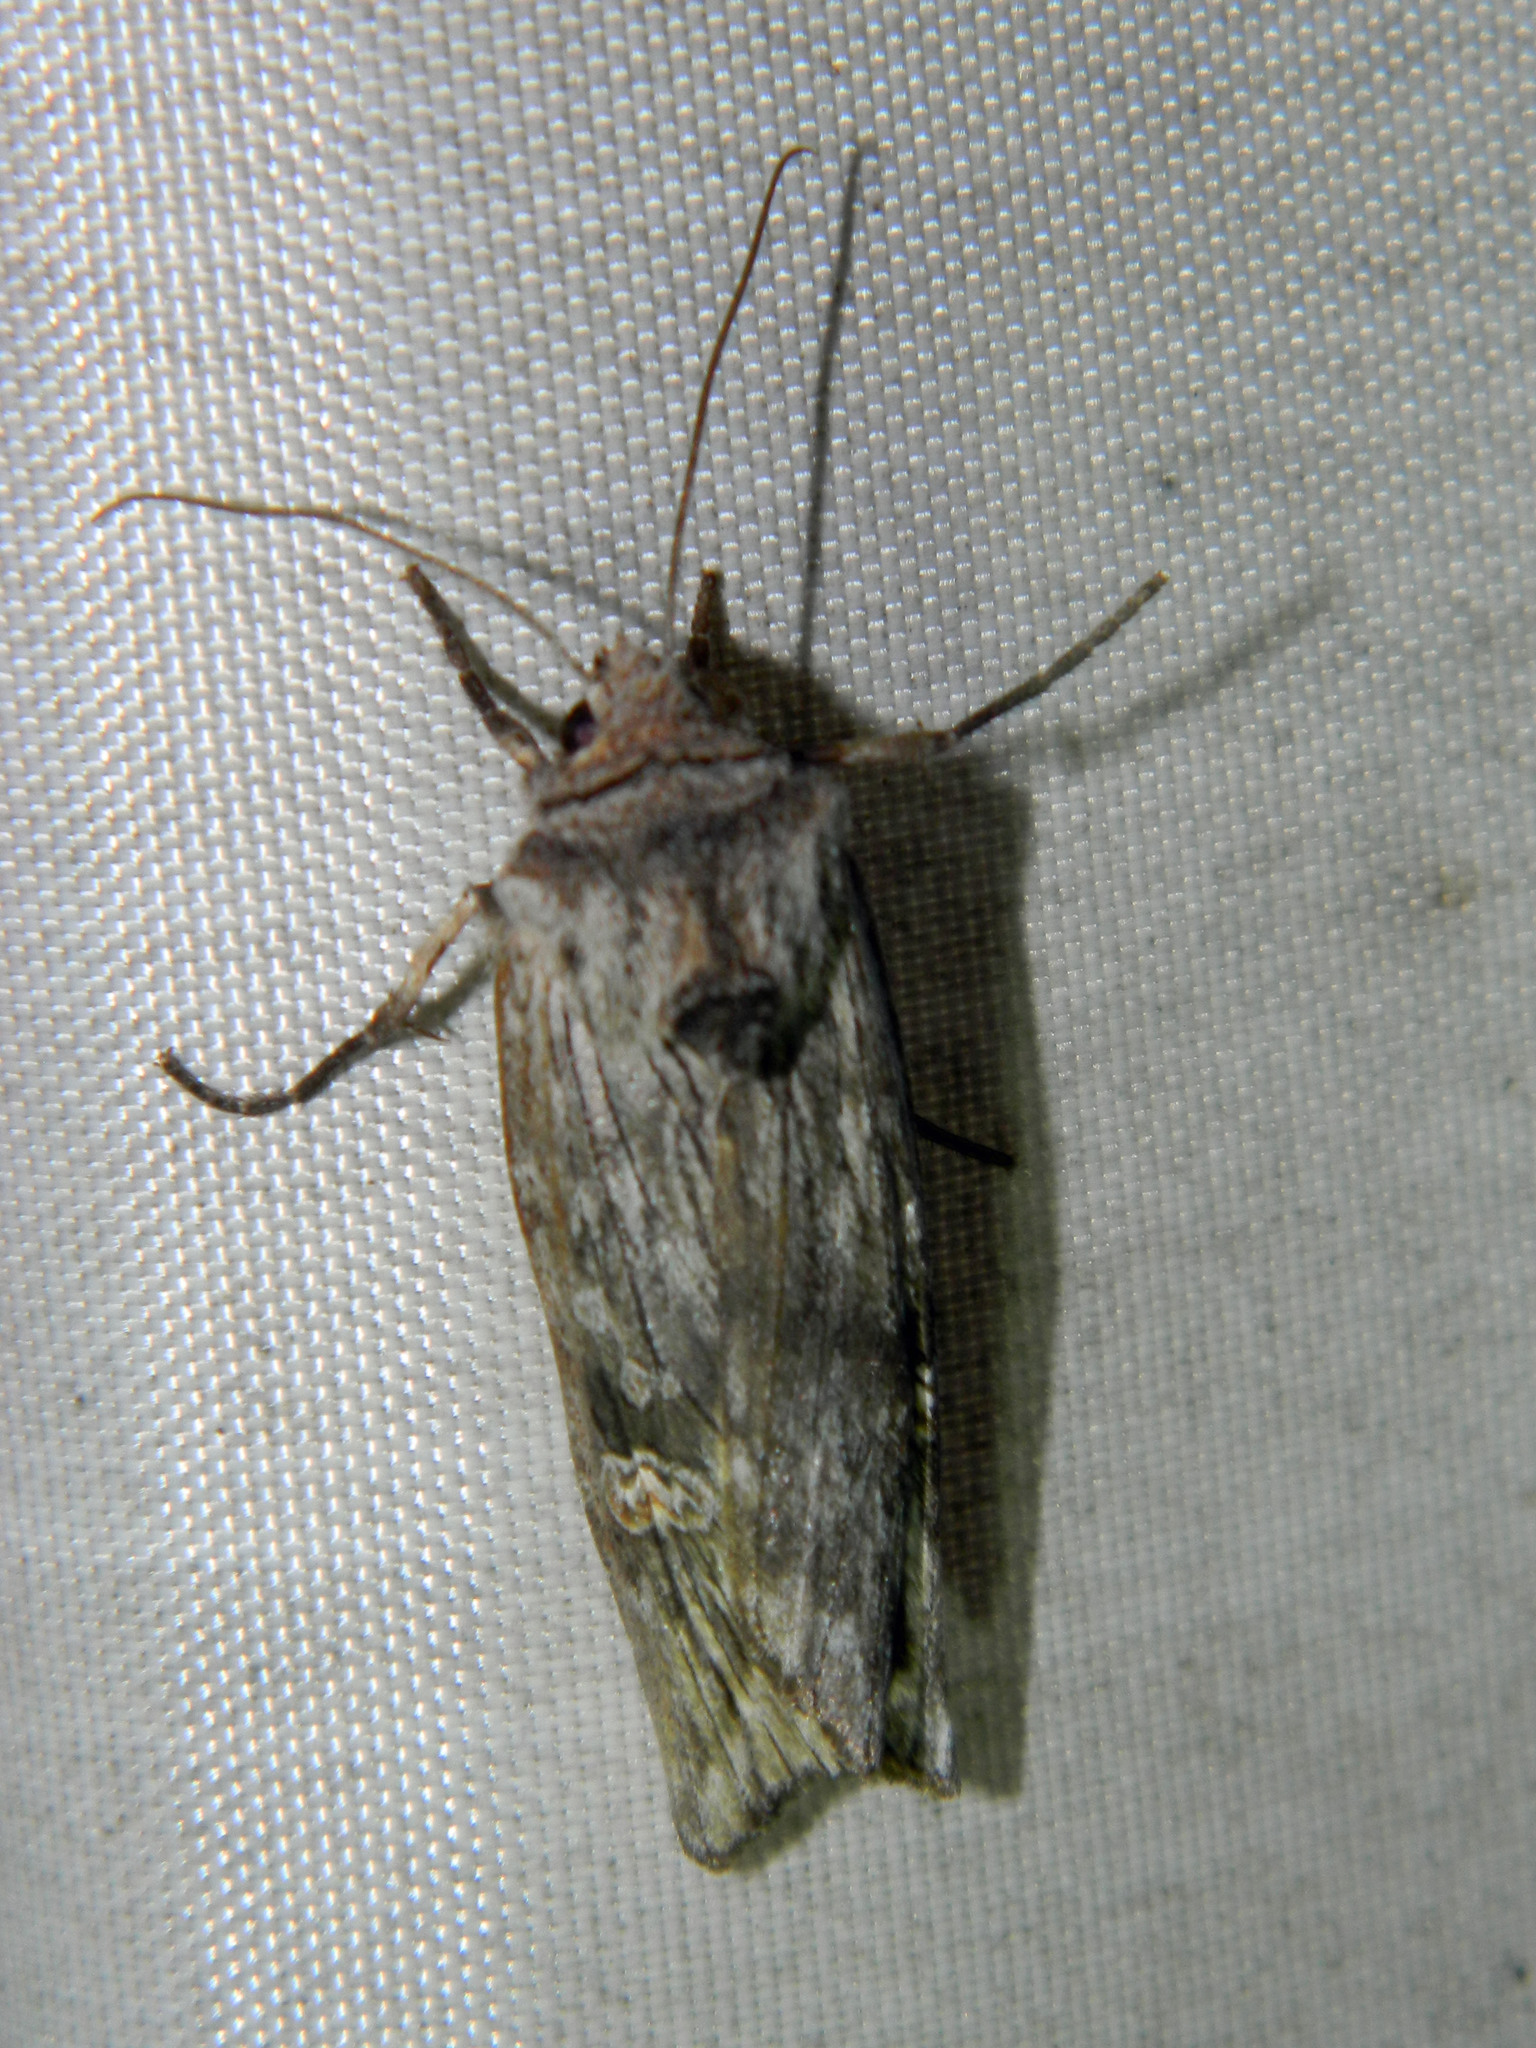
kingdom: Animalia
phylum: Arthropoda
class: Insecta
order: Lepidoptera
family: Noctuidae
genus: Xylena
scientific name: Xylena germana
